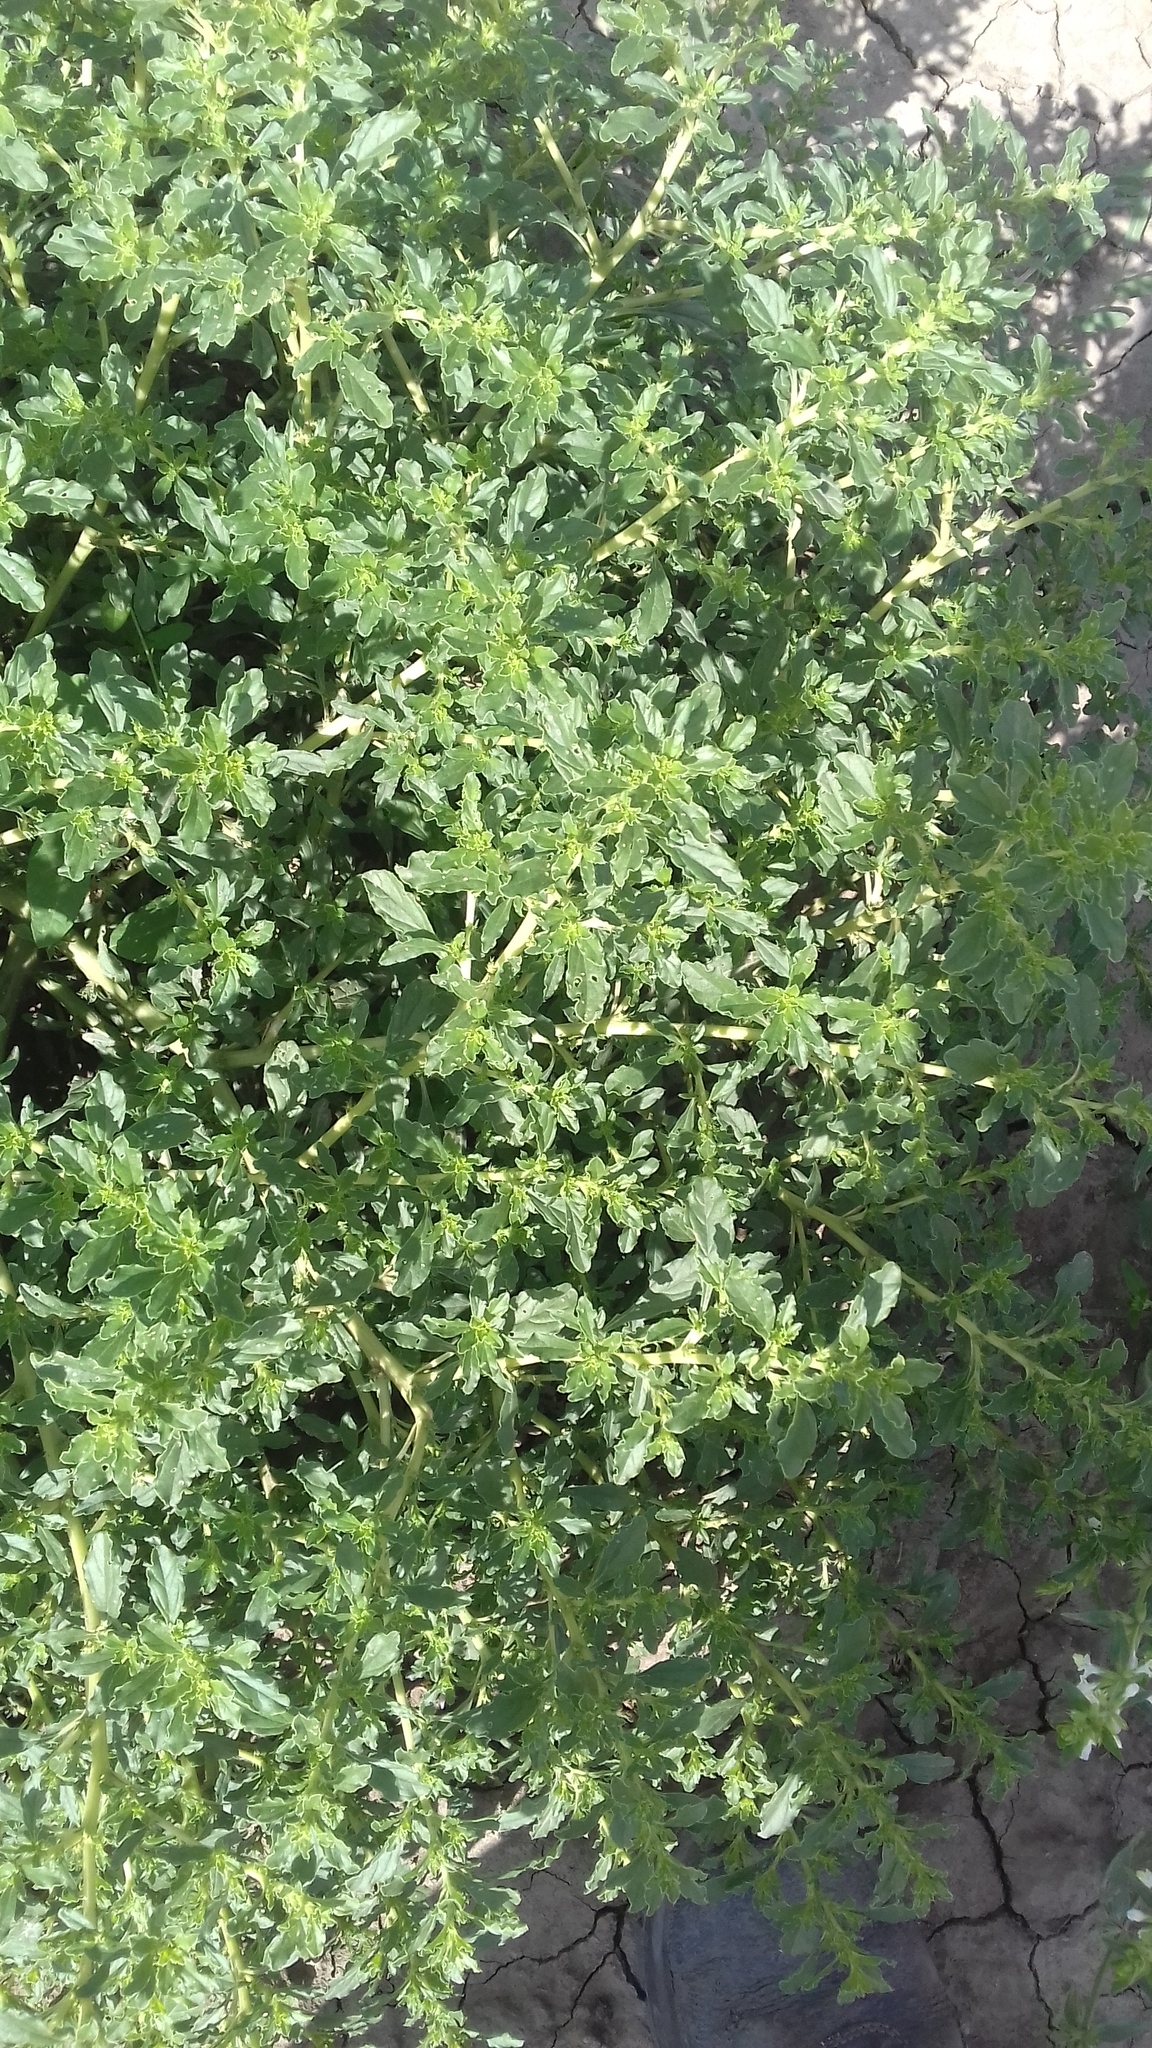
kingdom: Plantae
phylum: Tracheophyta
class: Magnoliopsida
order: Caryophyllales
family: Amaranthaceae
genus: Amaranthus
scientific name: Amaranthus albus
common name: White pigweed
